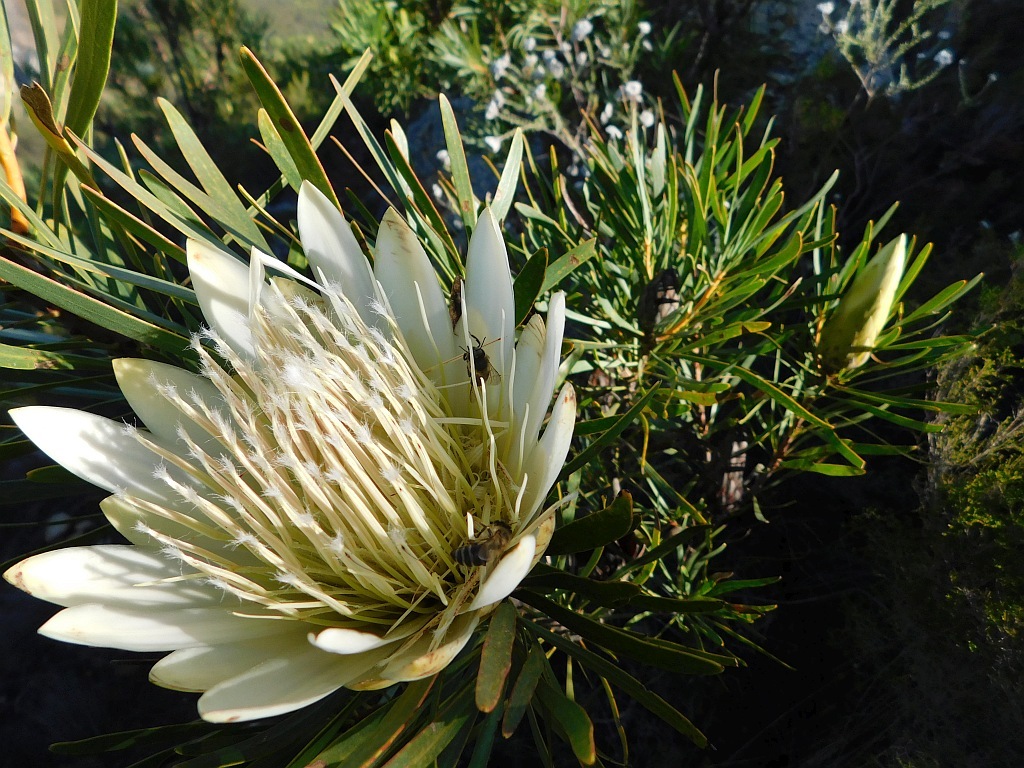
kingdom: Plantae
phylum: Tracheophyta
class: Magnoliopsida
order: Proteales
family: Proteaceae
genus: Protea
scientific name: Protea repens
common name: Sugarbush
